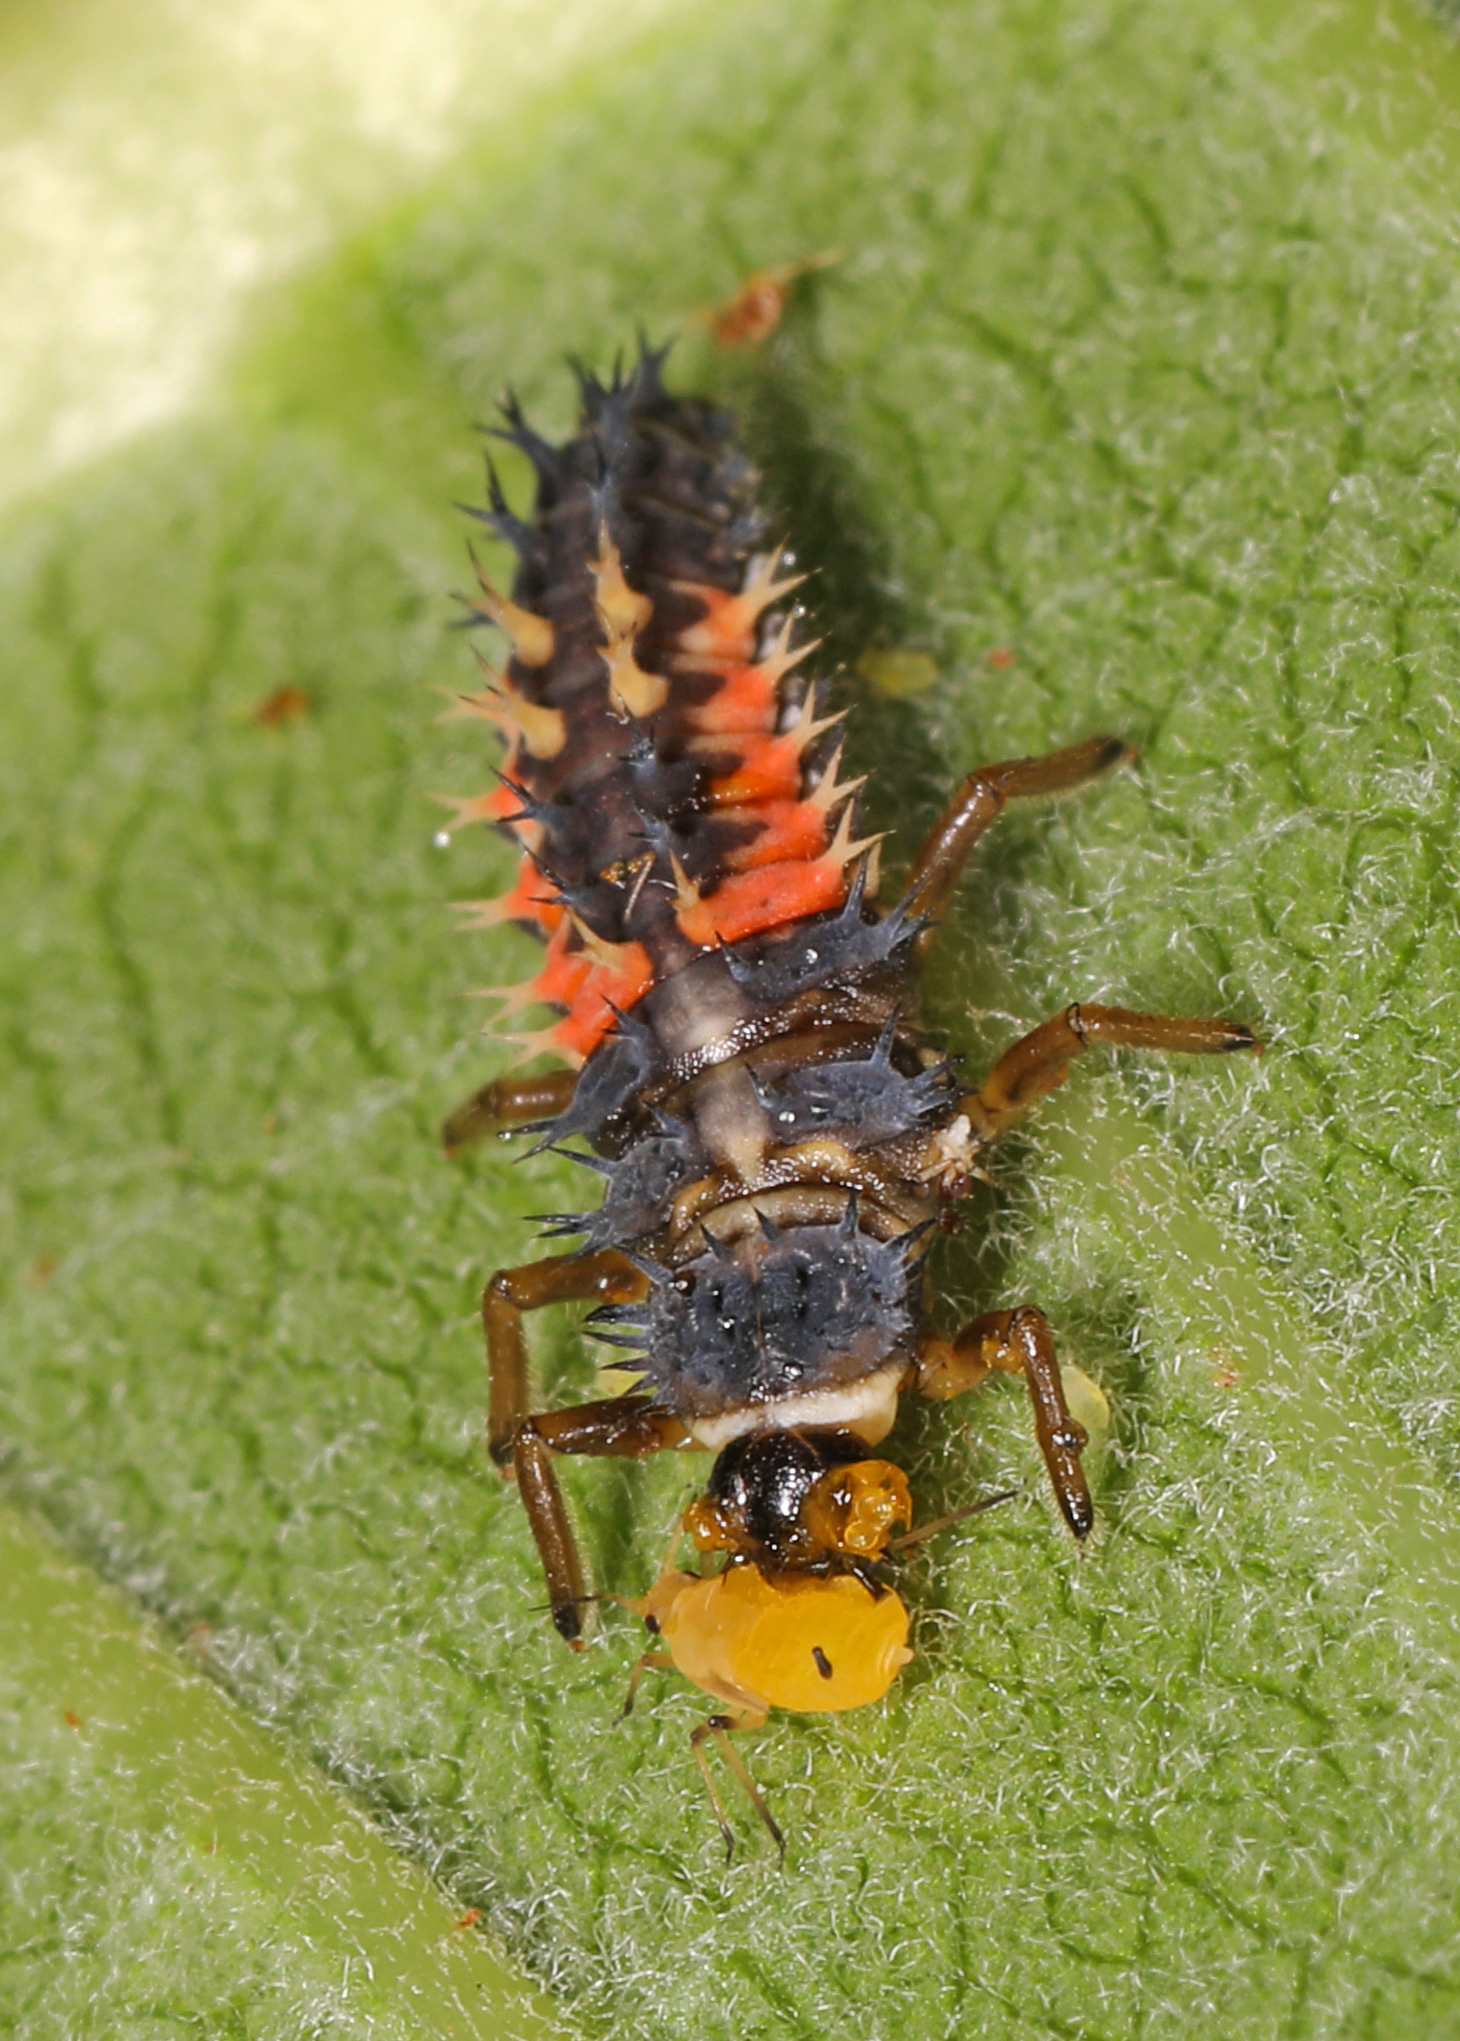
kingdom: Animalia
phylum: Arthropoda
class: Insecta
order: Coleoptera
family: Coccinellidae
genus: Harmonia
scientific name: Harmonia axyridis
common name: Harlequin ladybird
